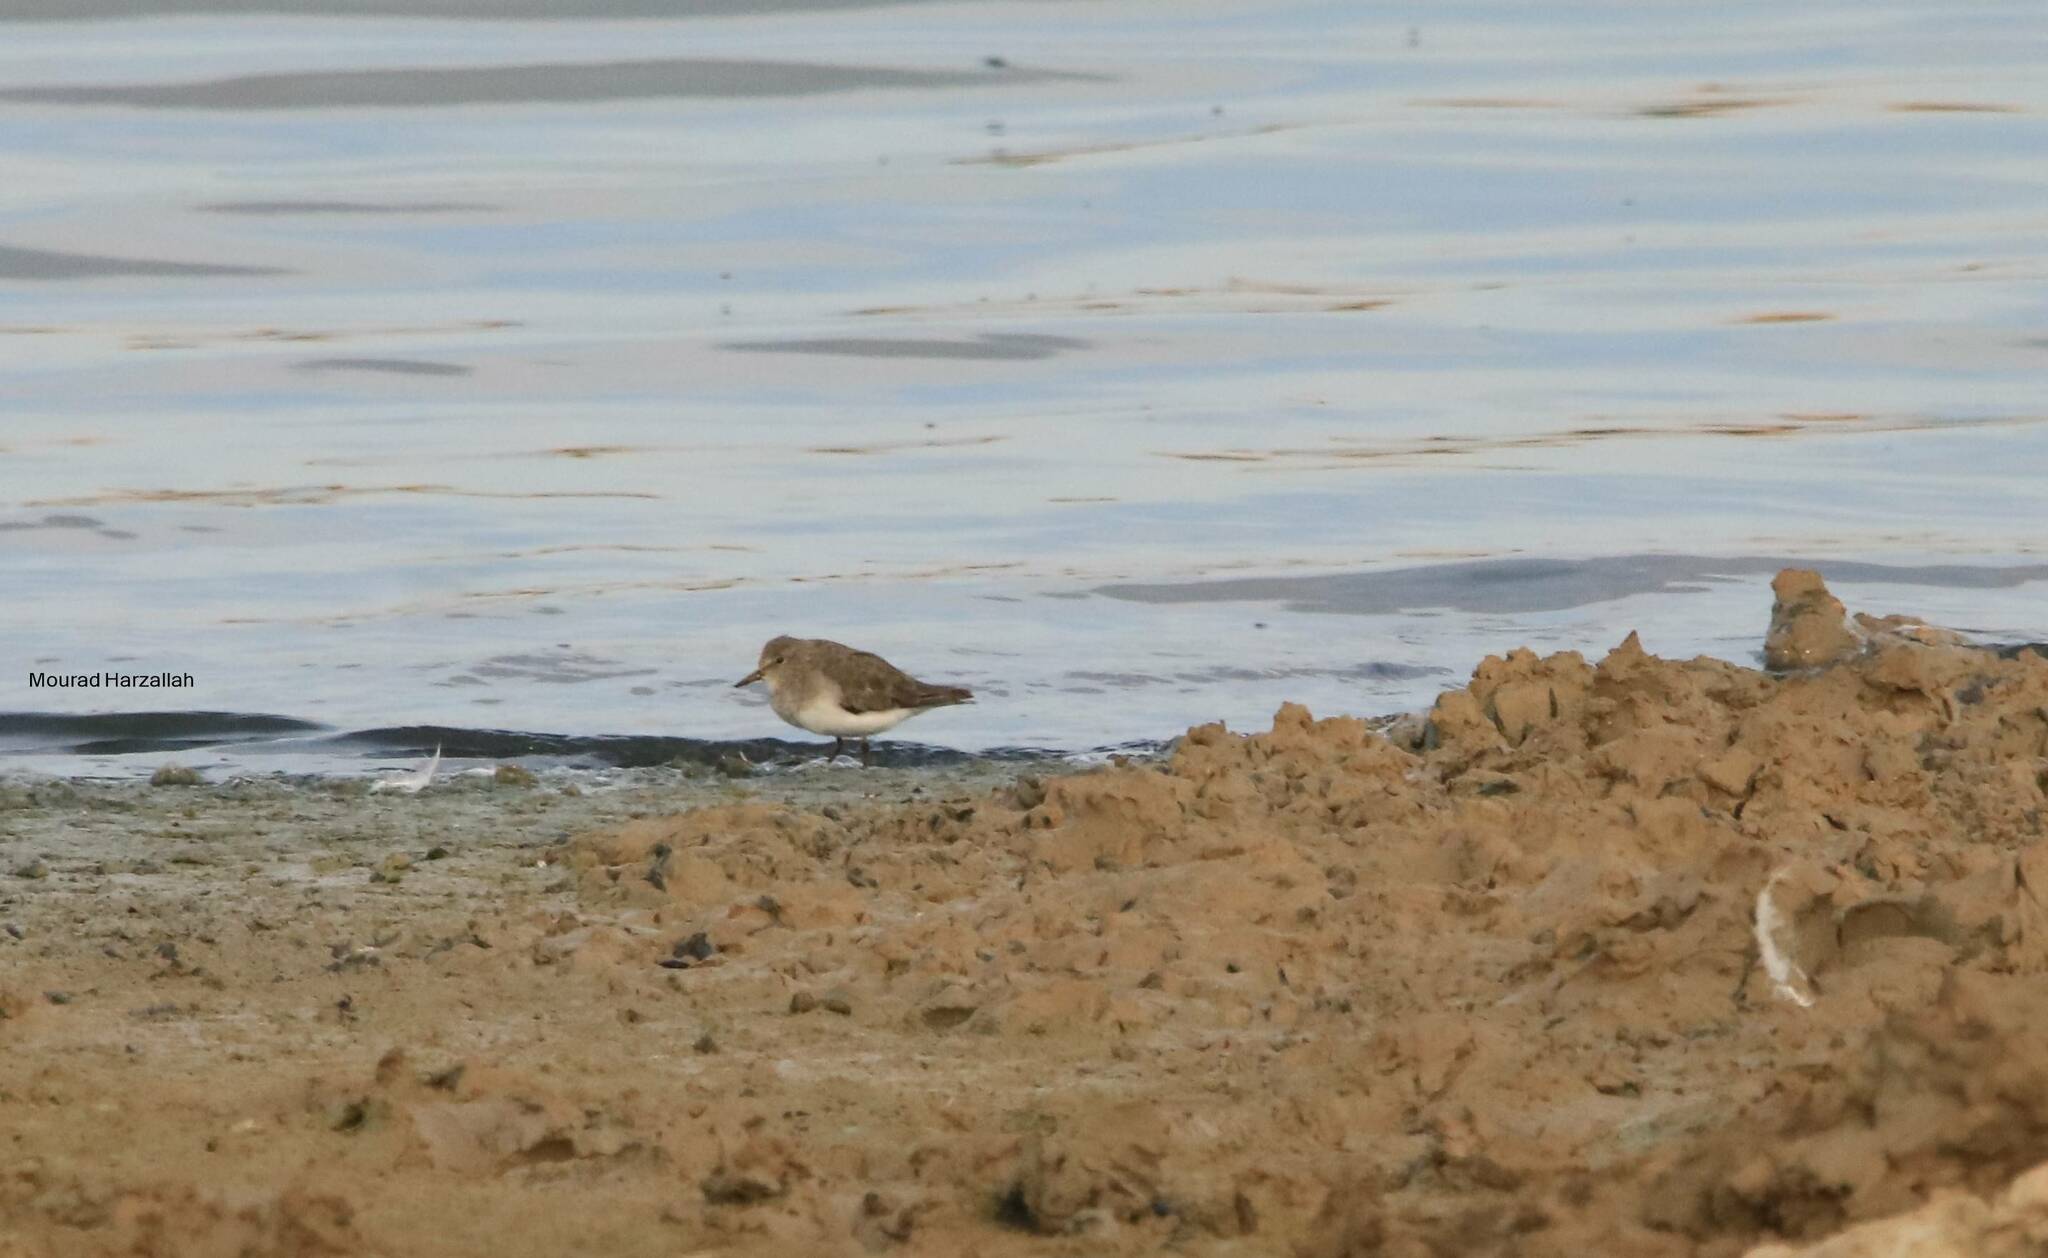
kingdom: Animalia
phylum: Chordata
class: Aves
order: Charadriiformes
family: Scolopacidae
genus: Calidris
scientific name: Calidris temminckii
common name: Temminck's stint
